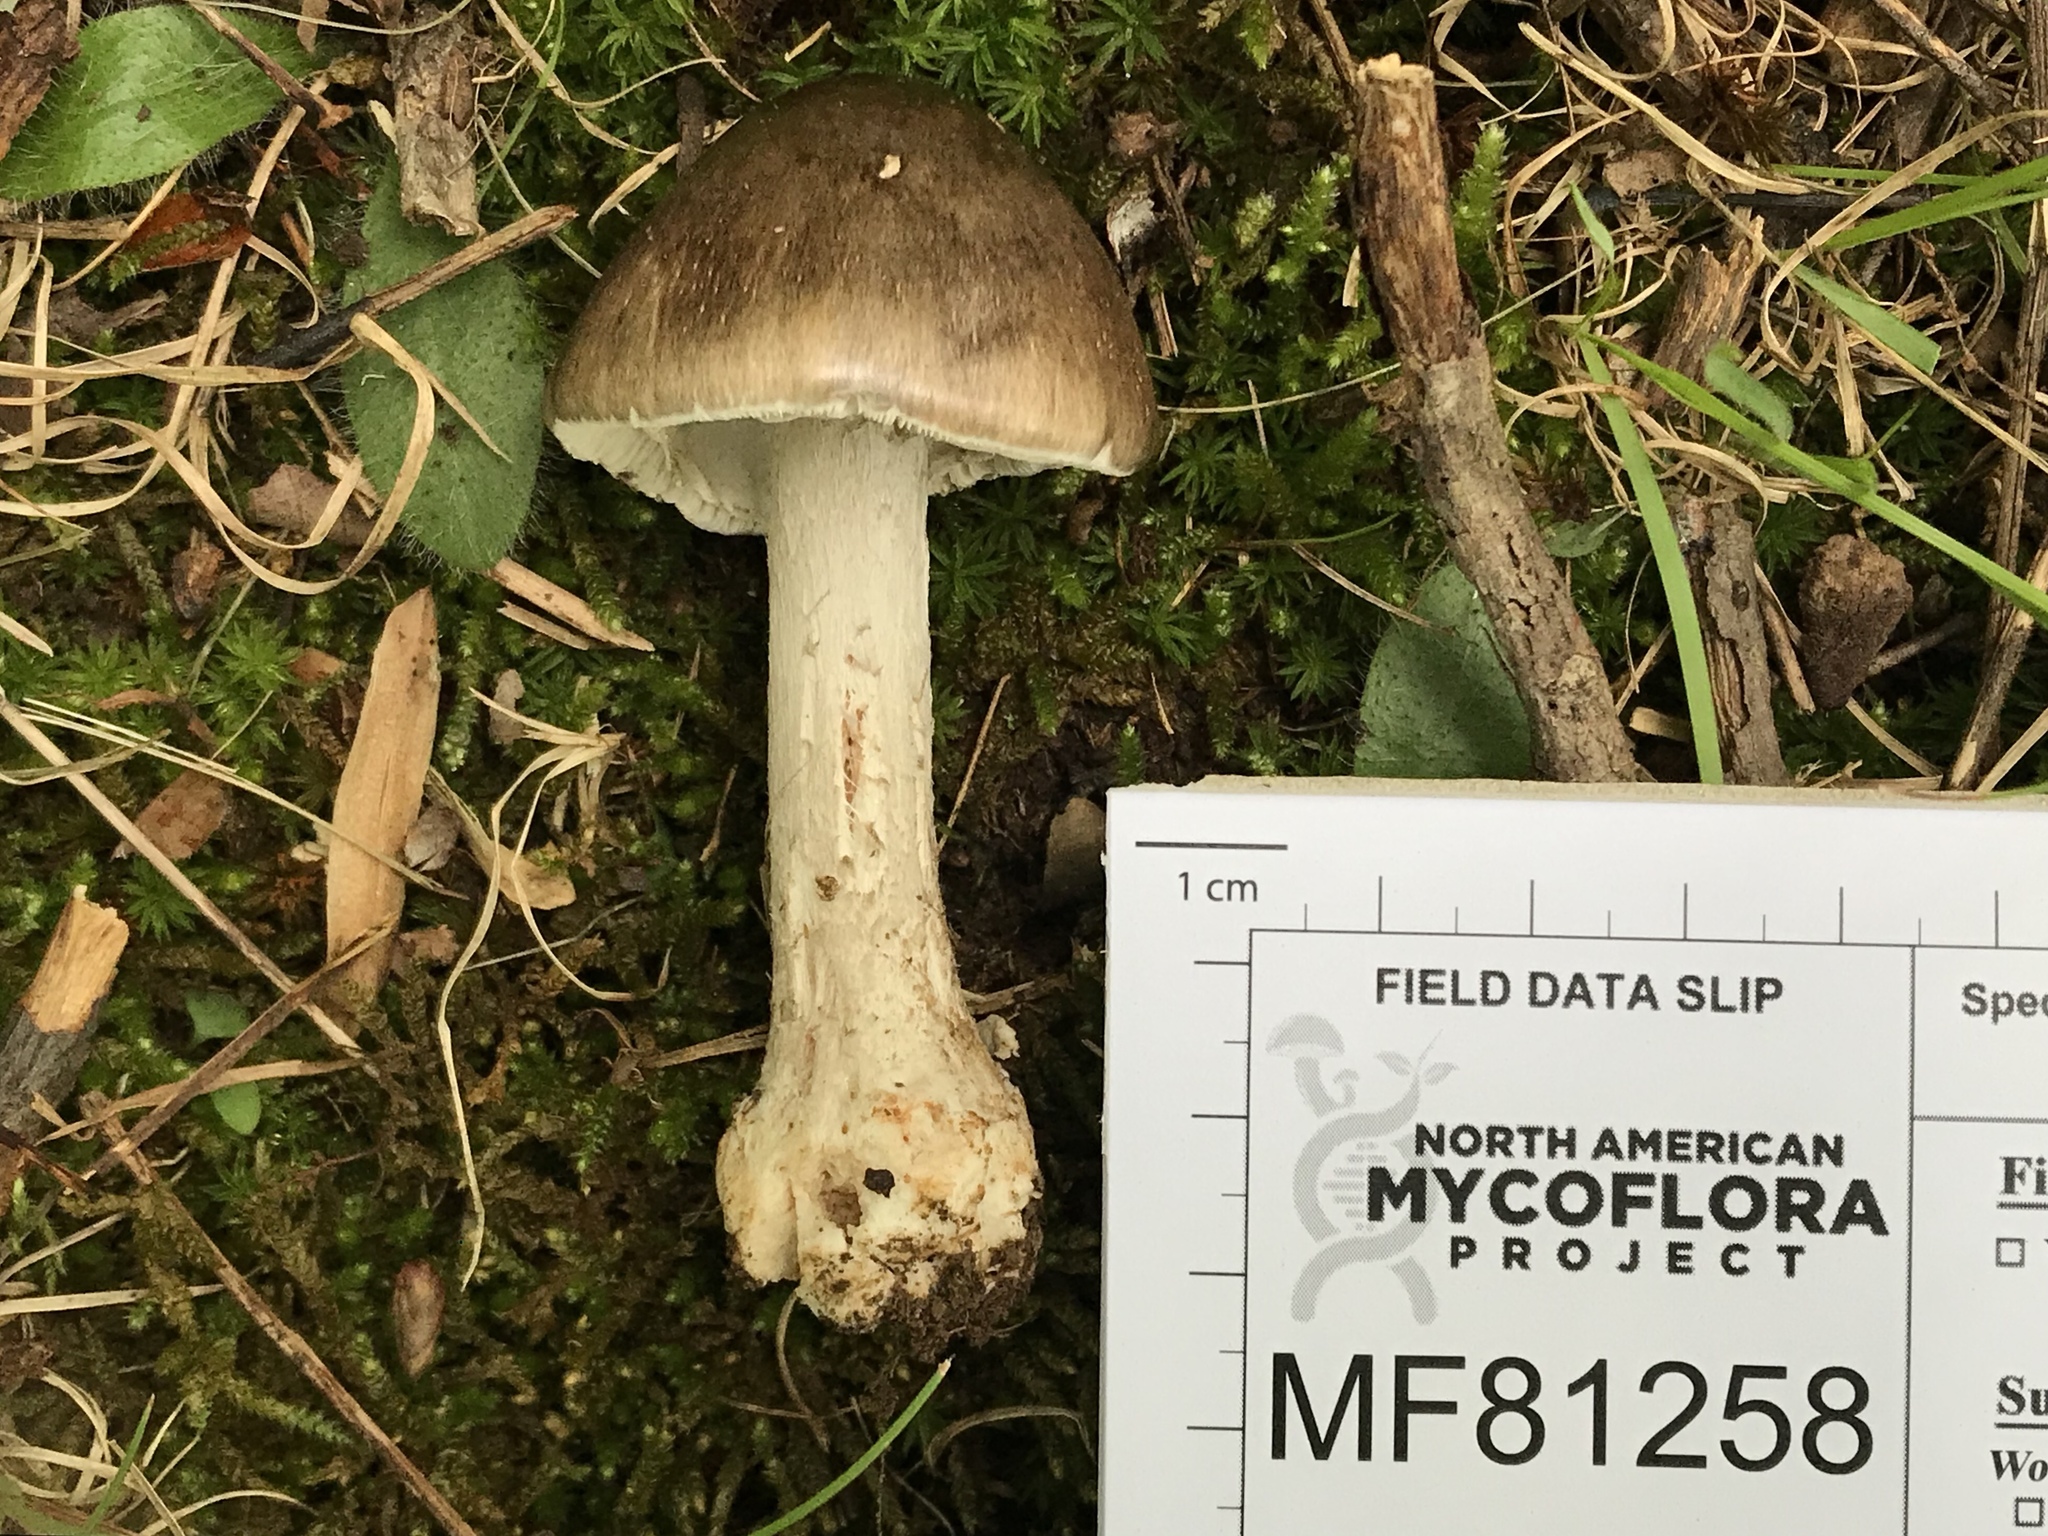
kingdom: Fungi
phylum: Basidiomycota
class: Agaricomycetes
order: Agaricales
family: Amanitaceae
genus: Amanita
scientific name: Amanita submaculata
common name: Ball gown amanita
